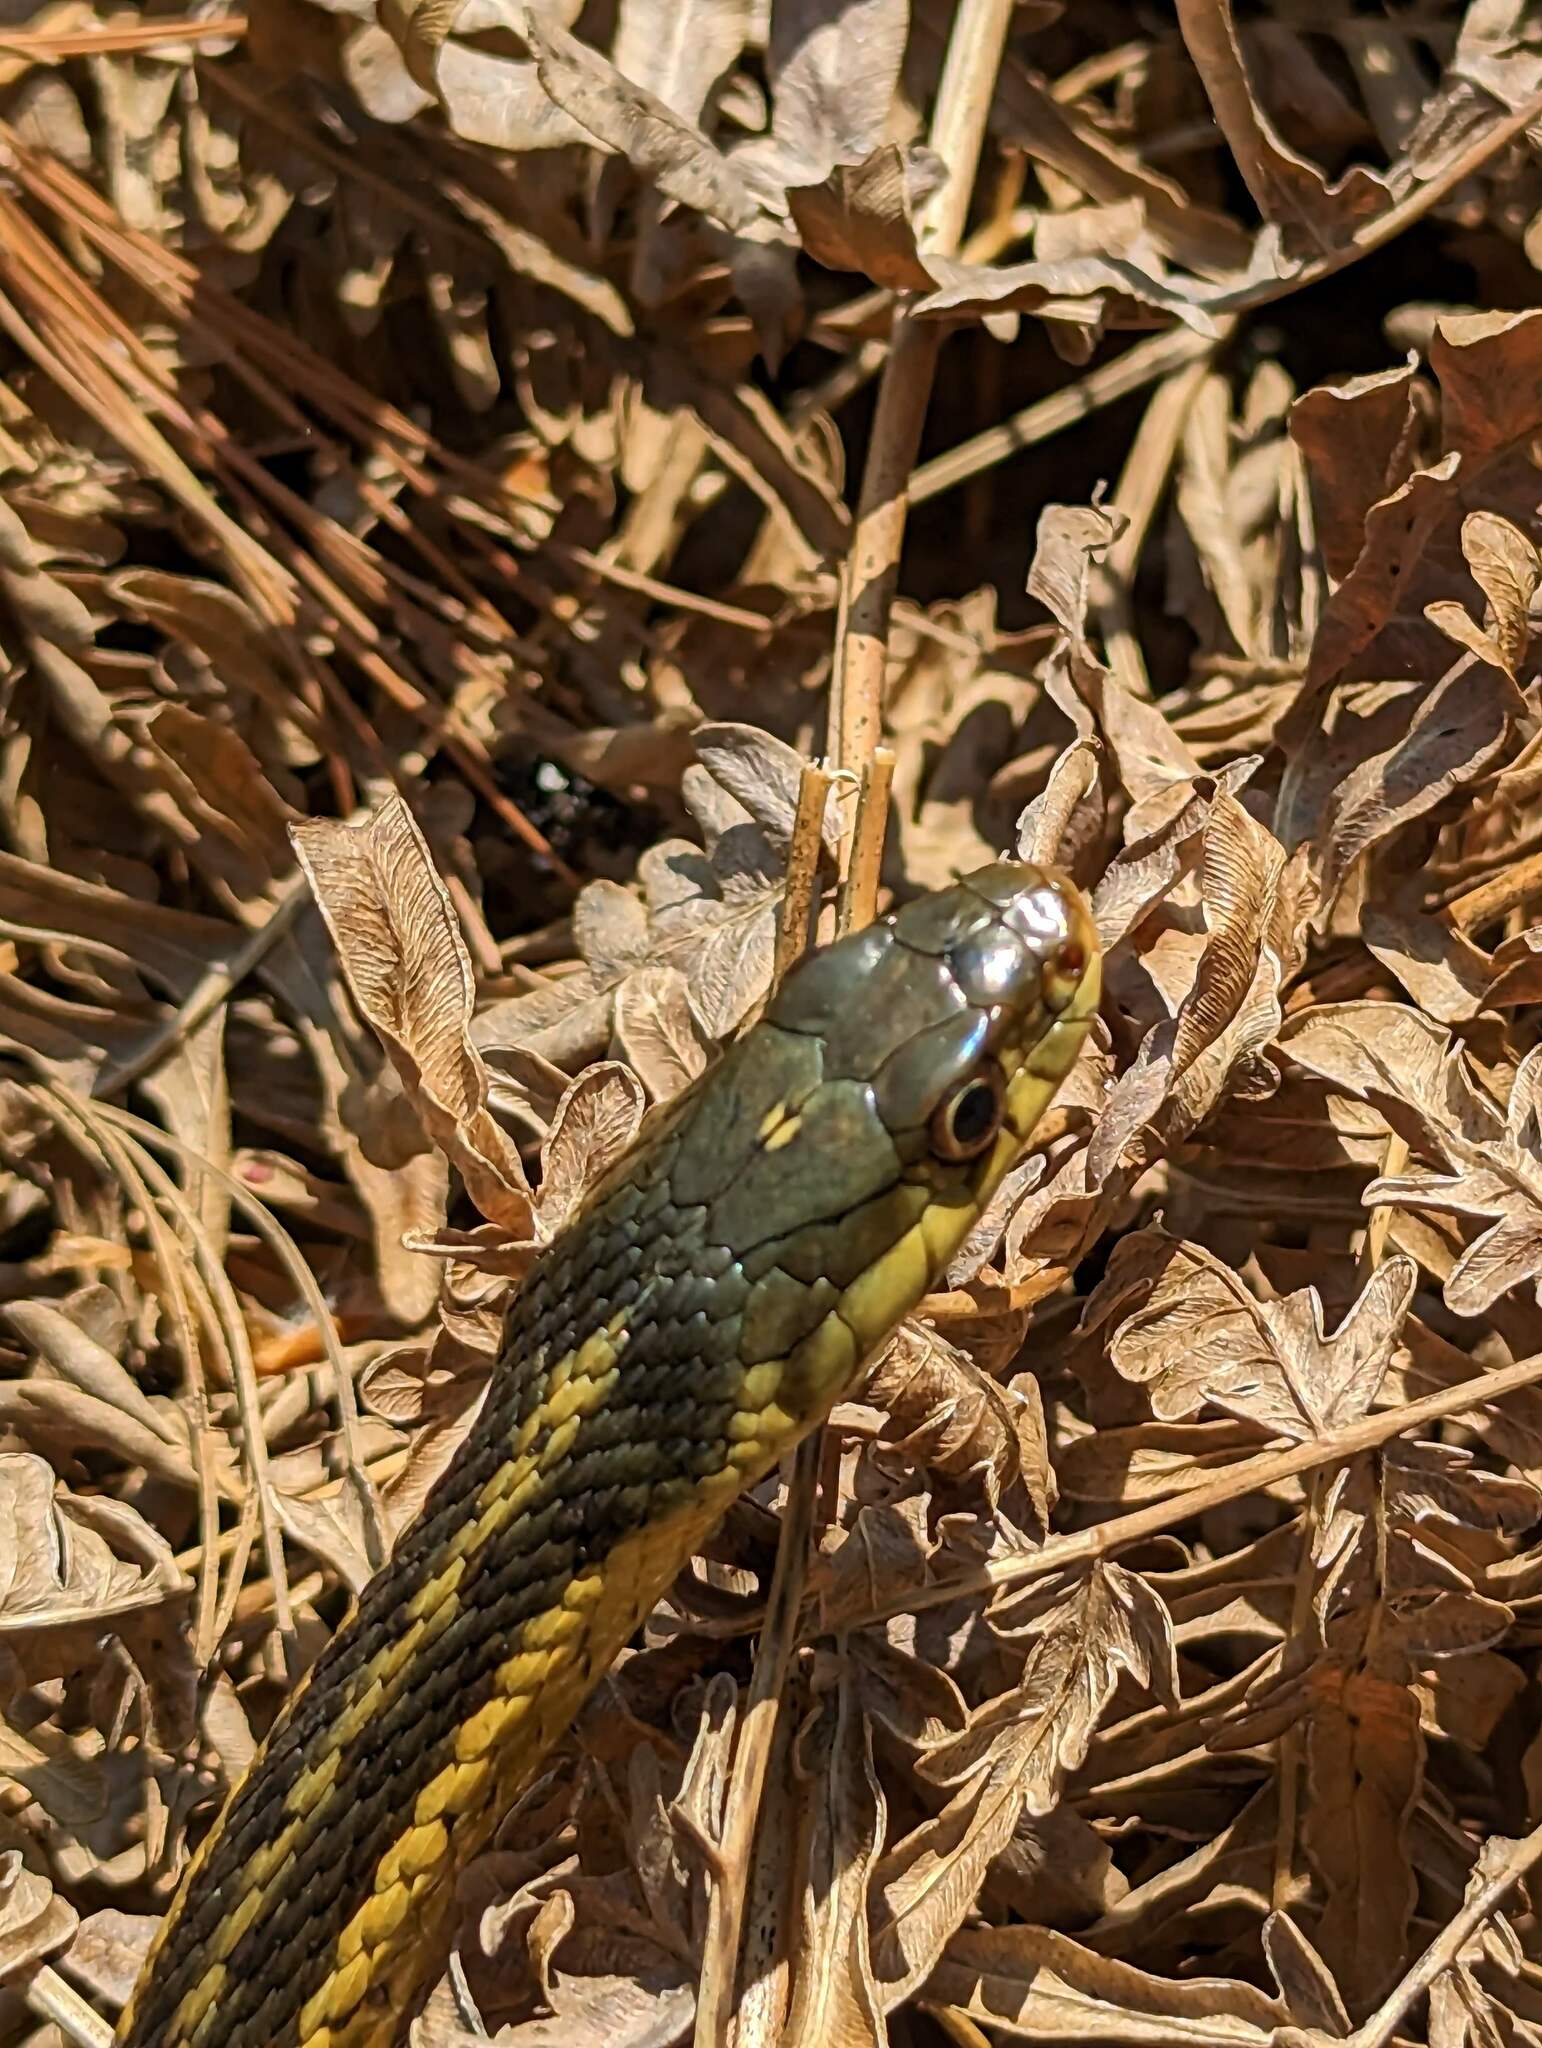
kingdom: Animalia
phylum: Chordata
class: Squamata
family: Colubridae
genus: Thamnophis
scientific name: Thamnophis sirtalis
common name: Common garter snake
